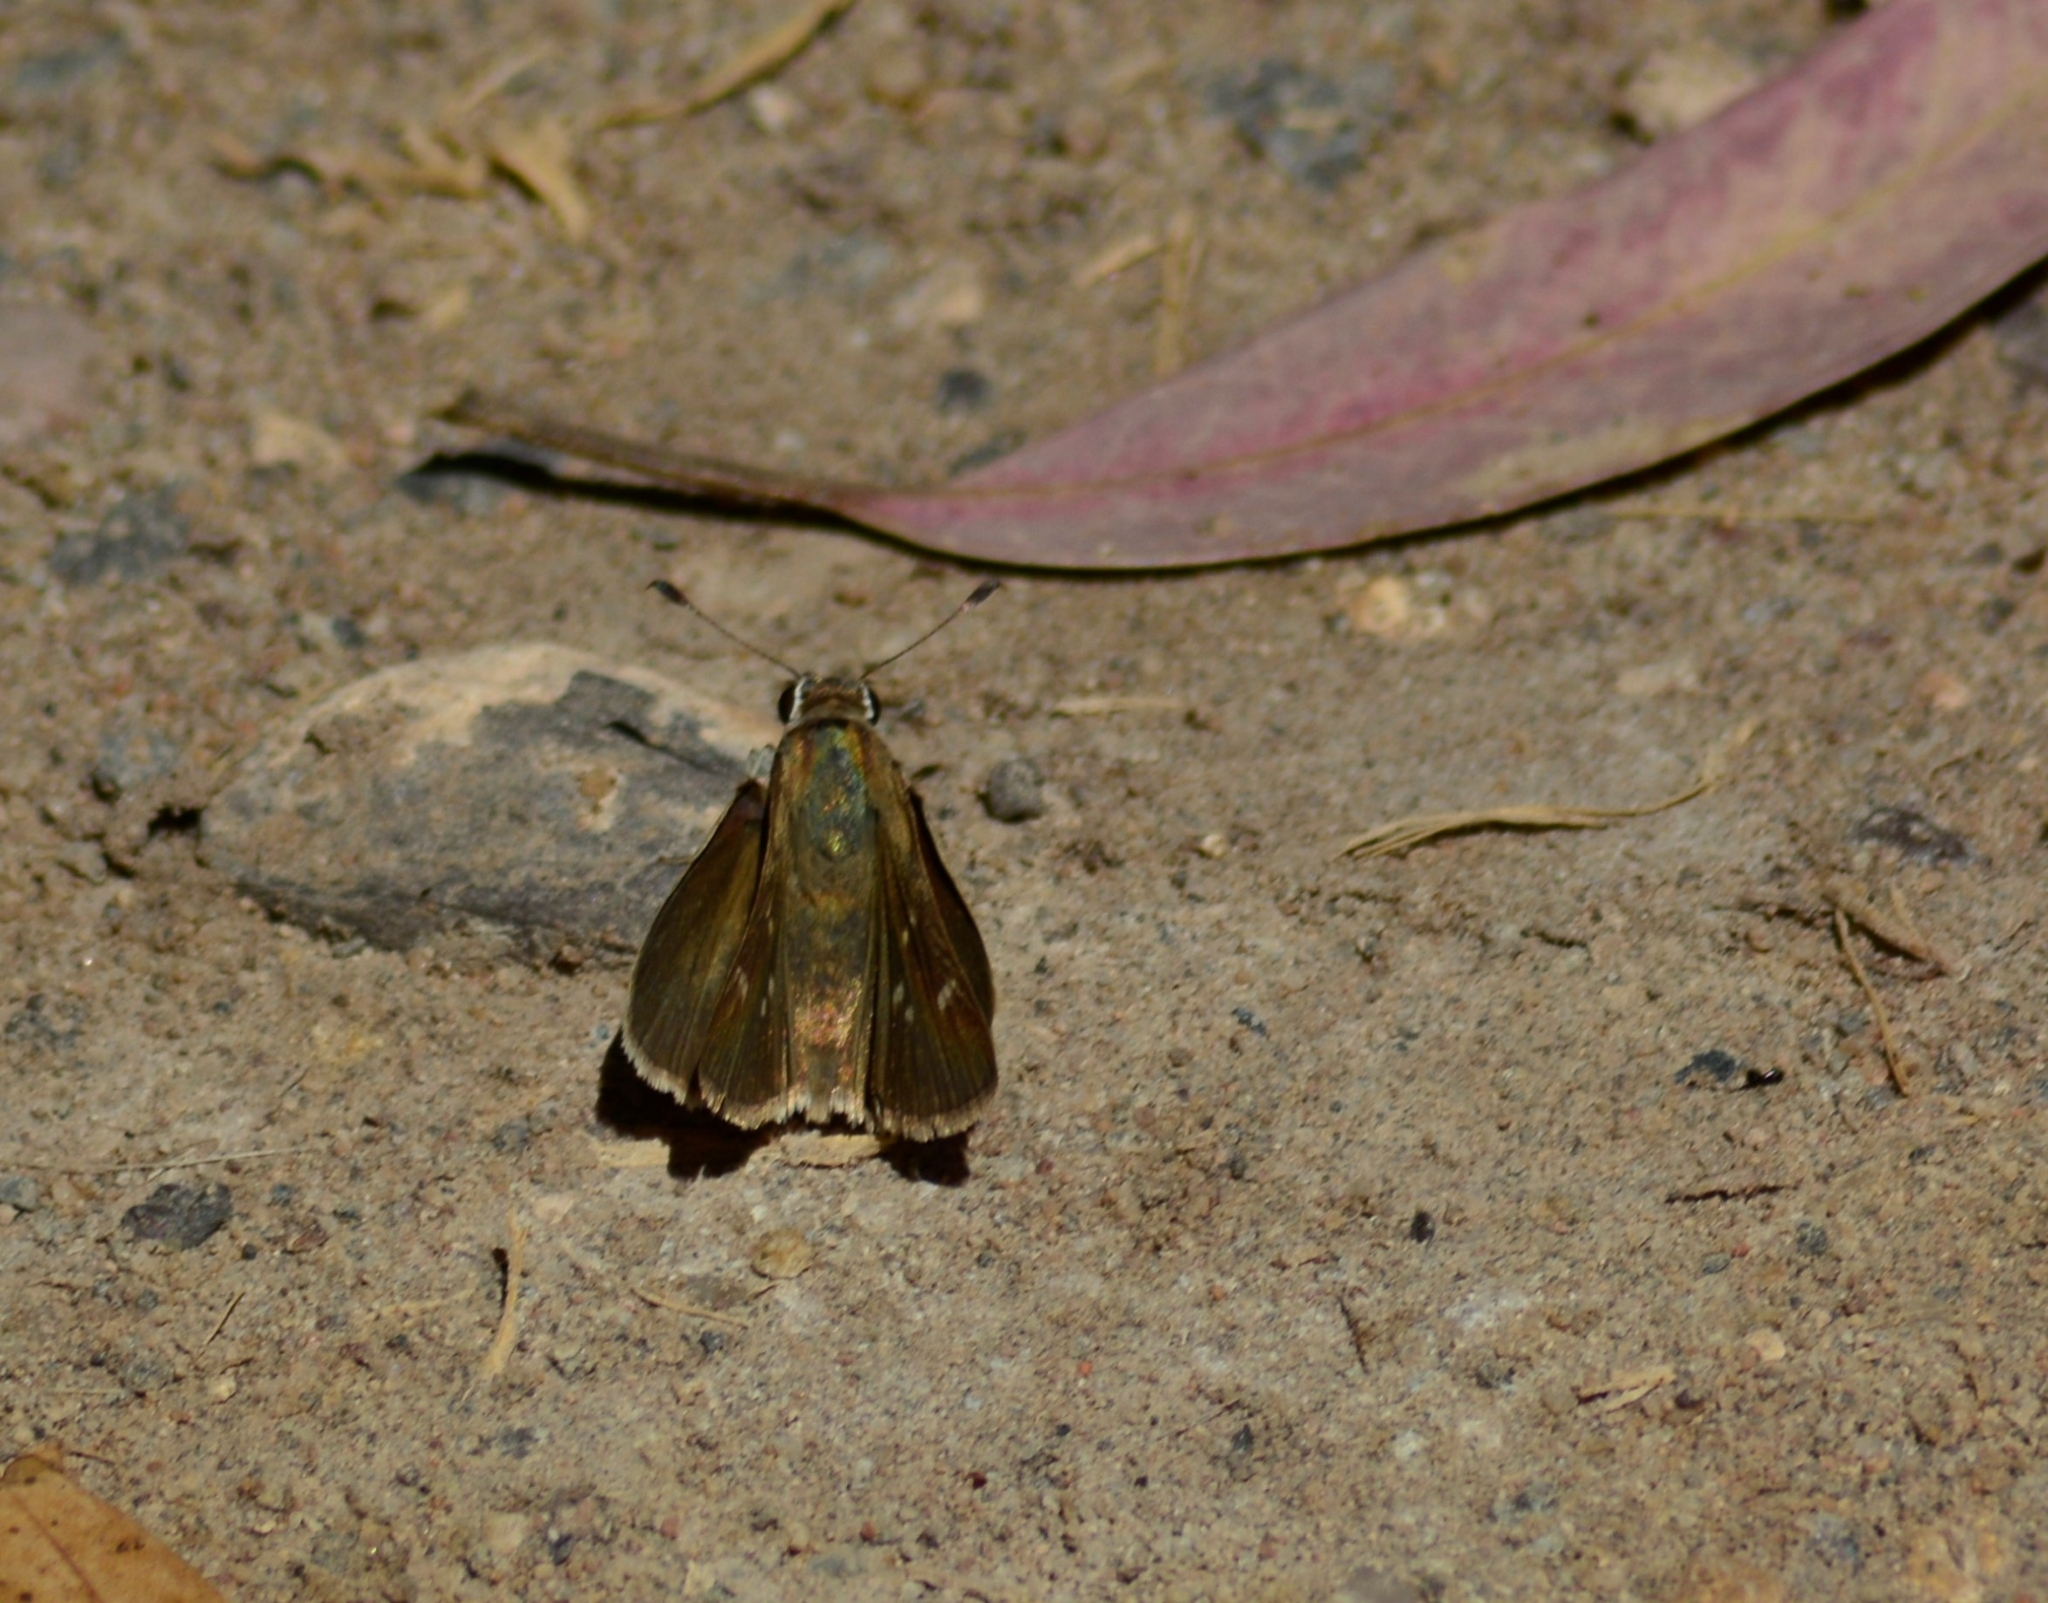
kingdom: Animalia
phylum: Arthropoda
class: Insecta
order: Lepidoptera
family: Hesperiidae
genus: Lerodea
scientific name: Lerodea eufala
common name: Eufala skipper
